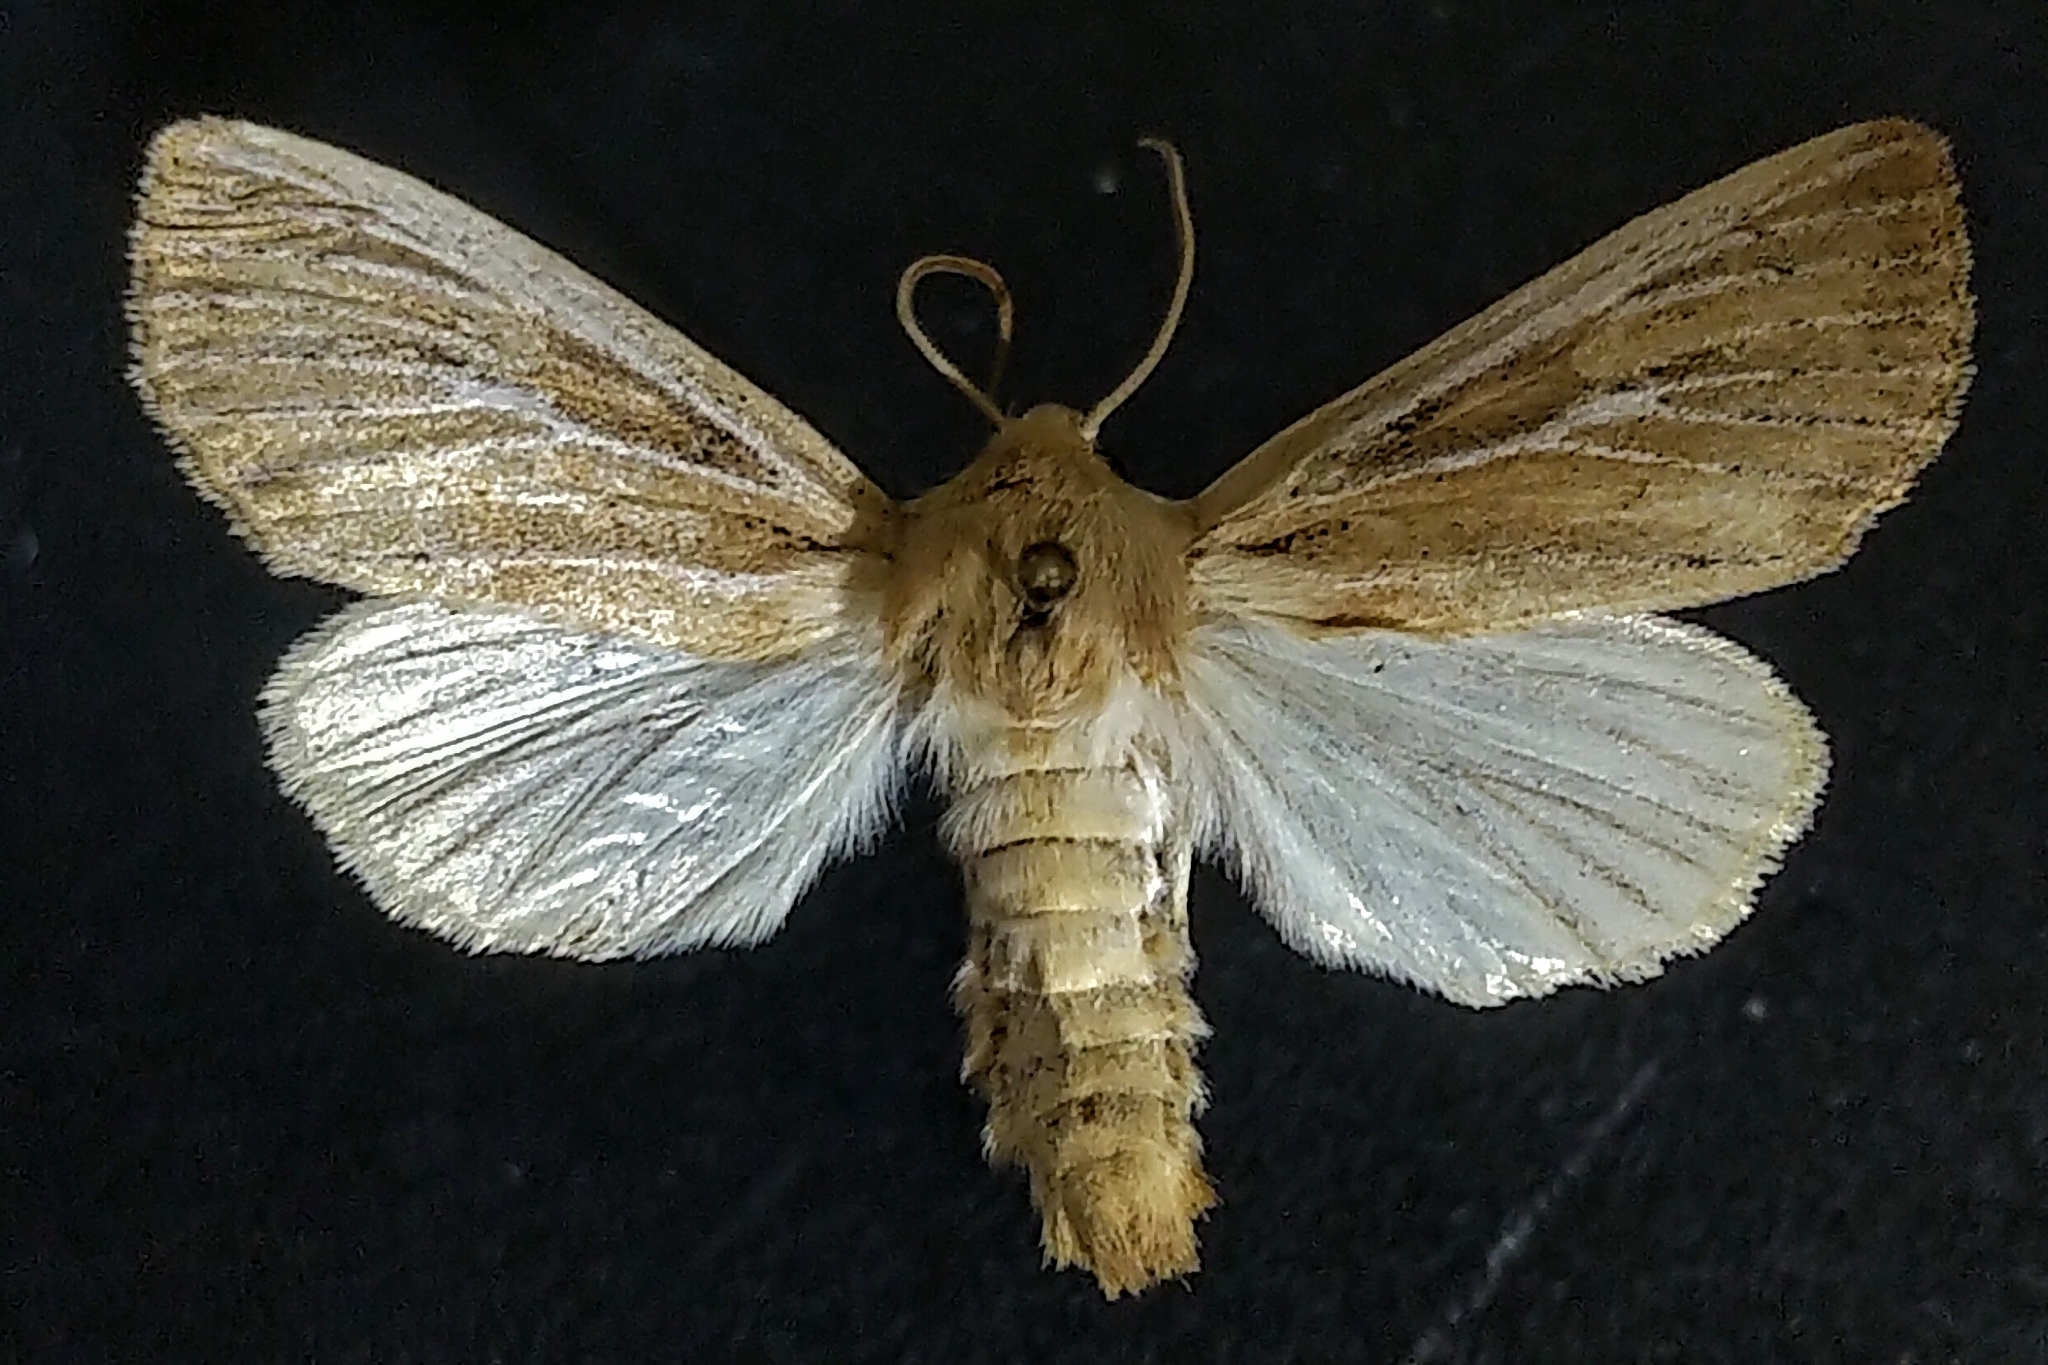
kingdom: Animalia
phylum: Arthropoda
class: Insecta
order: Lepidoptera
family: Noctuidae
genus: Apamea
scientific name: Apamea lintneri
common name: Sand wainscot
